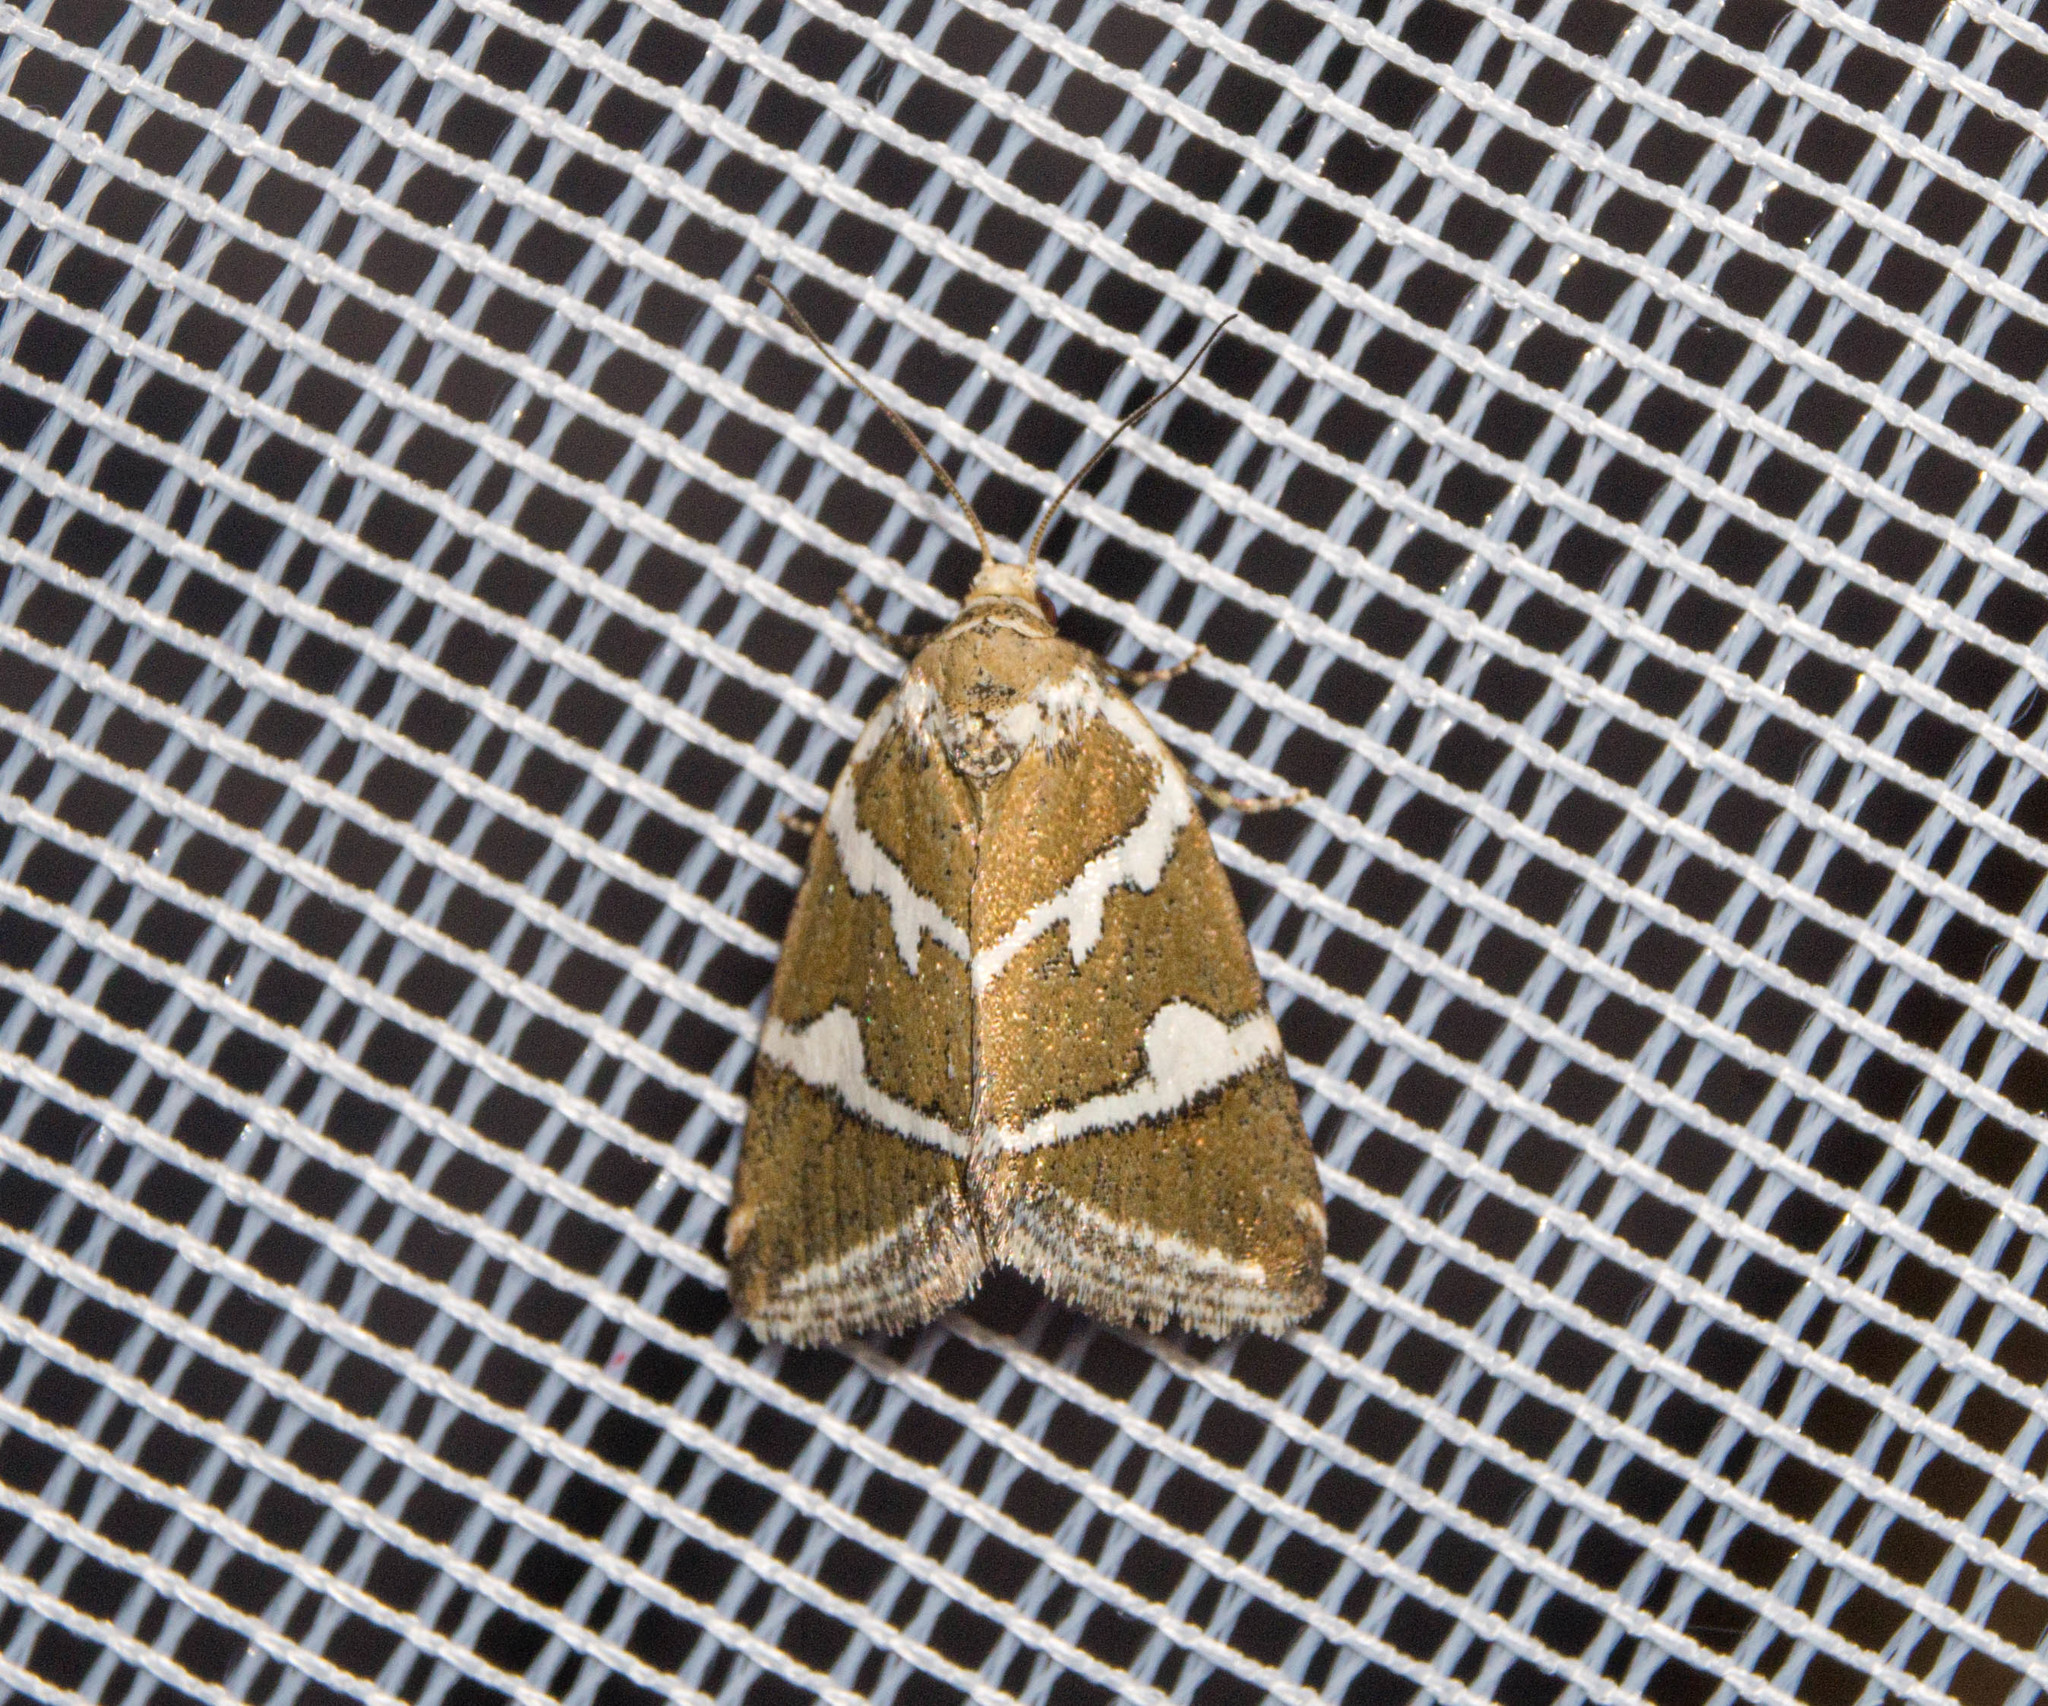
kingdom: Animalia
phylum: Arthropoda
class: Insecta
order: Lepidoptera
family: Noctuidae
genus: Deltote
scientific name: Deltote bankiana
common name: Silver barred
